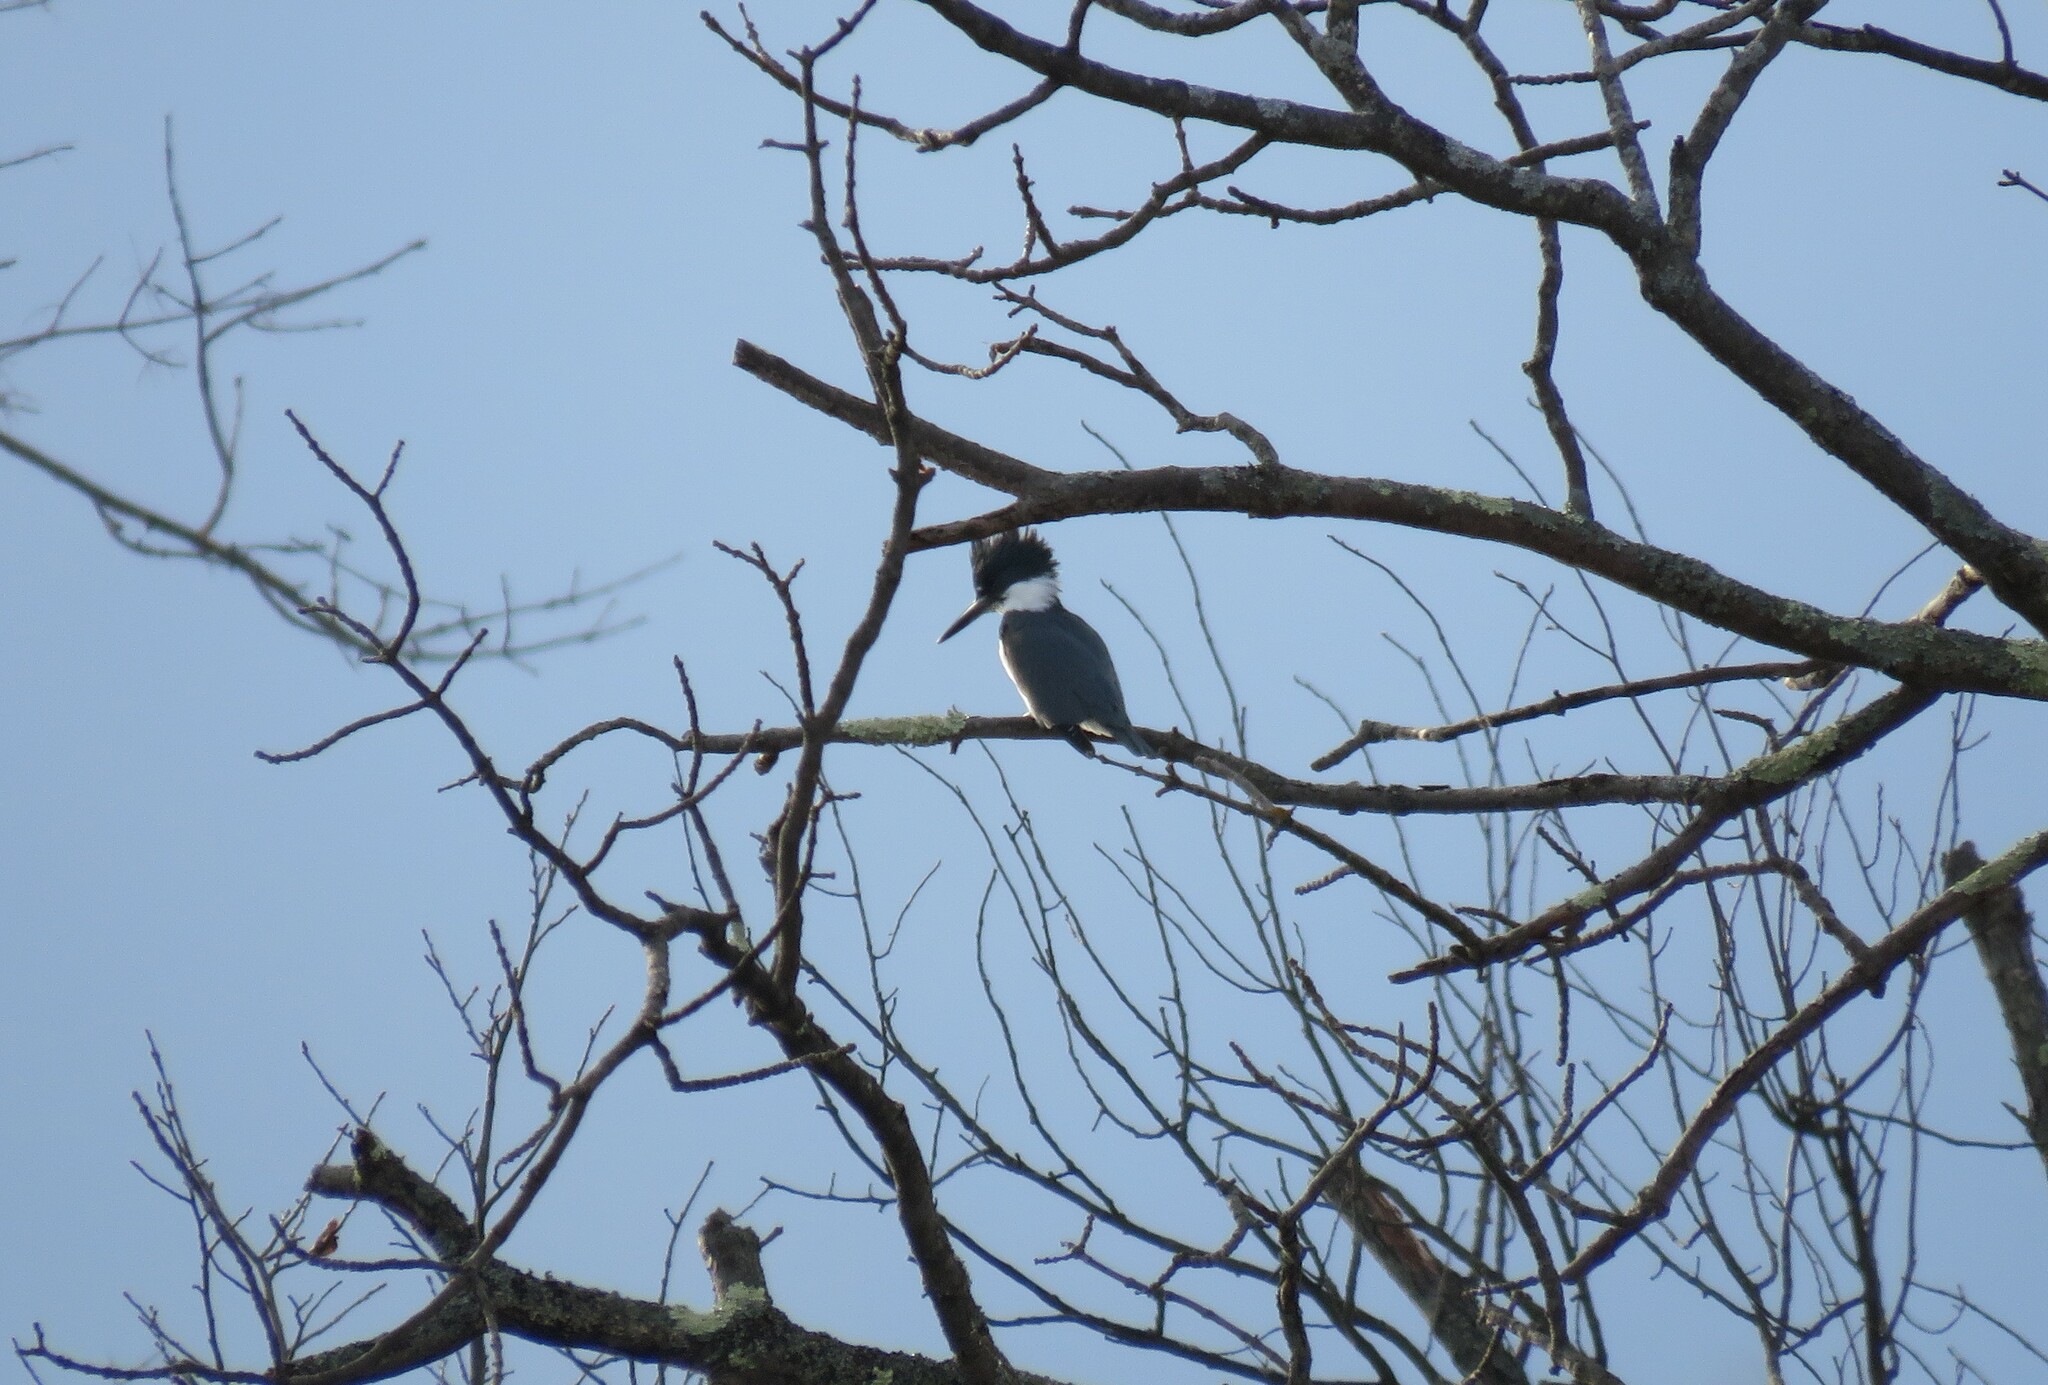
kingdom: Animalia
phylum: Chordata
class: Aves
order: Coraciiformes
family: Alcedinidae
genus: Megaceryle
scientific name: Megaceryle alcyon
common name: Belted kingfisher
